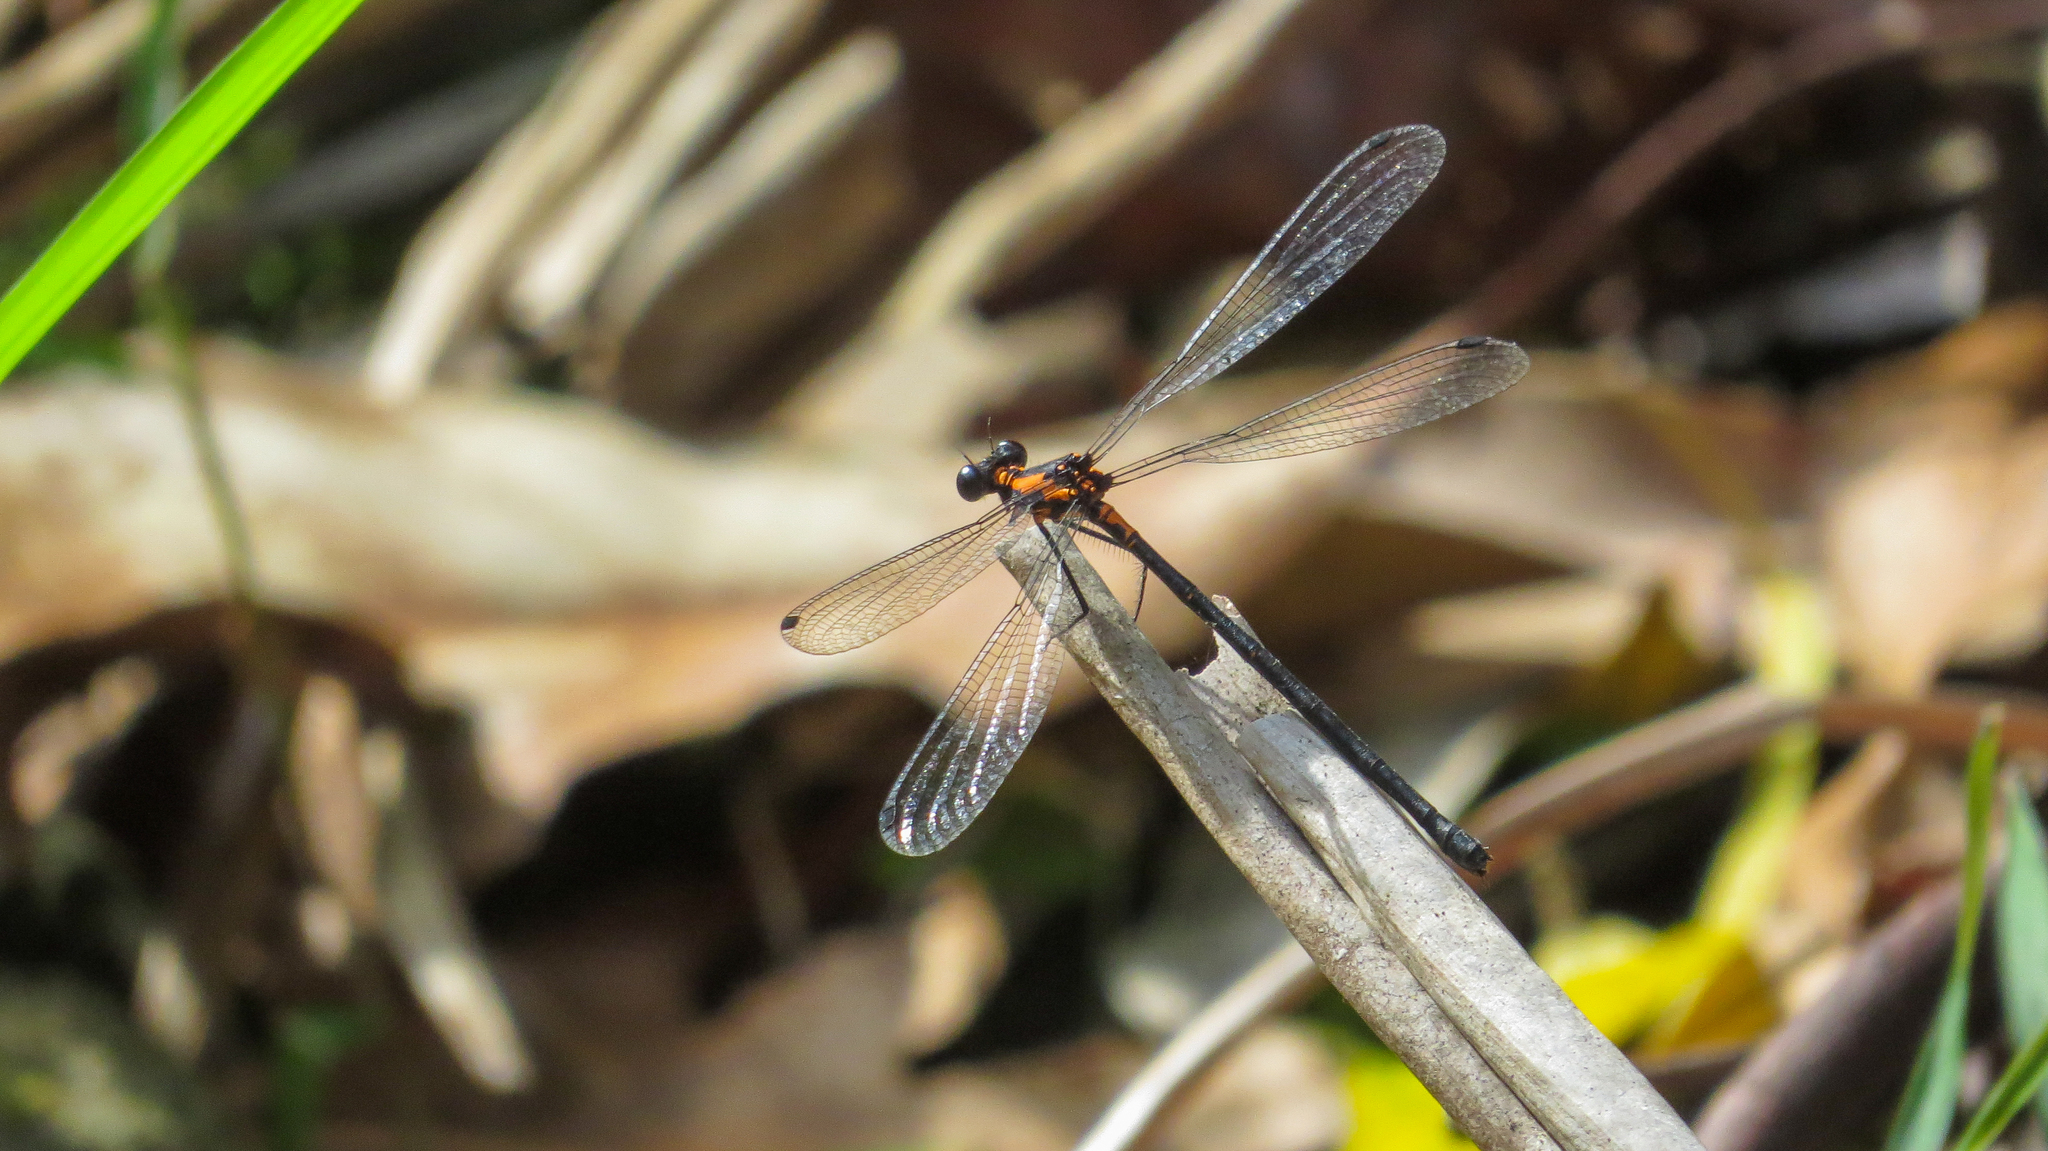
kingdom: Animalia
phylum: Arthropoda
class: Insecta
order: Odonata
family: Argiolestidae
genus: Austroargiolestes
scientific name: Austroargiolestes amabilis
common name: Flame flatwing
